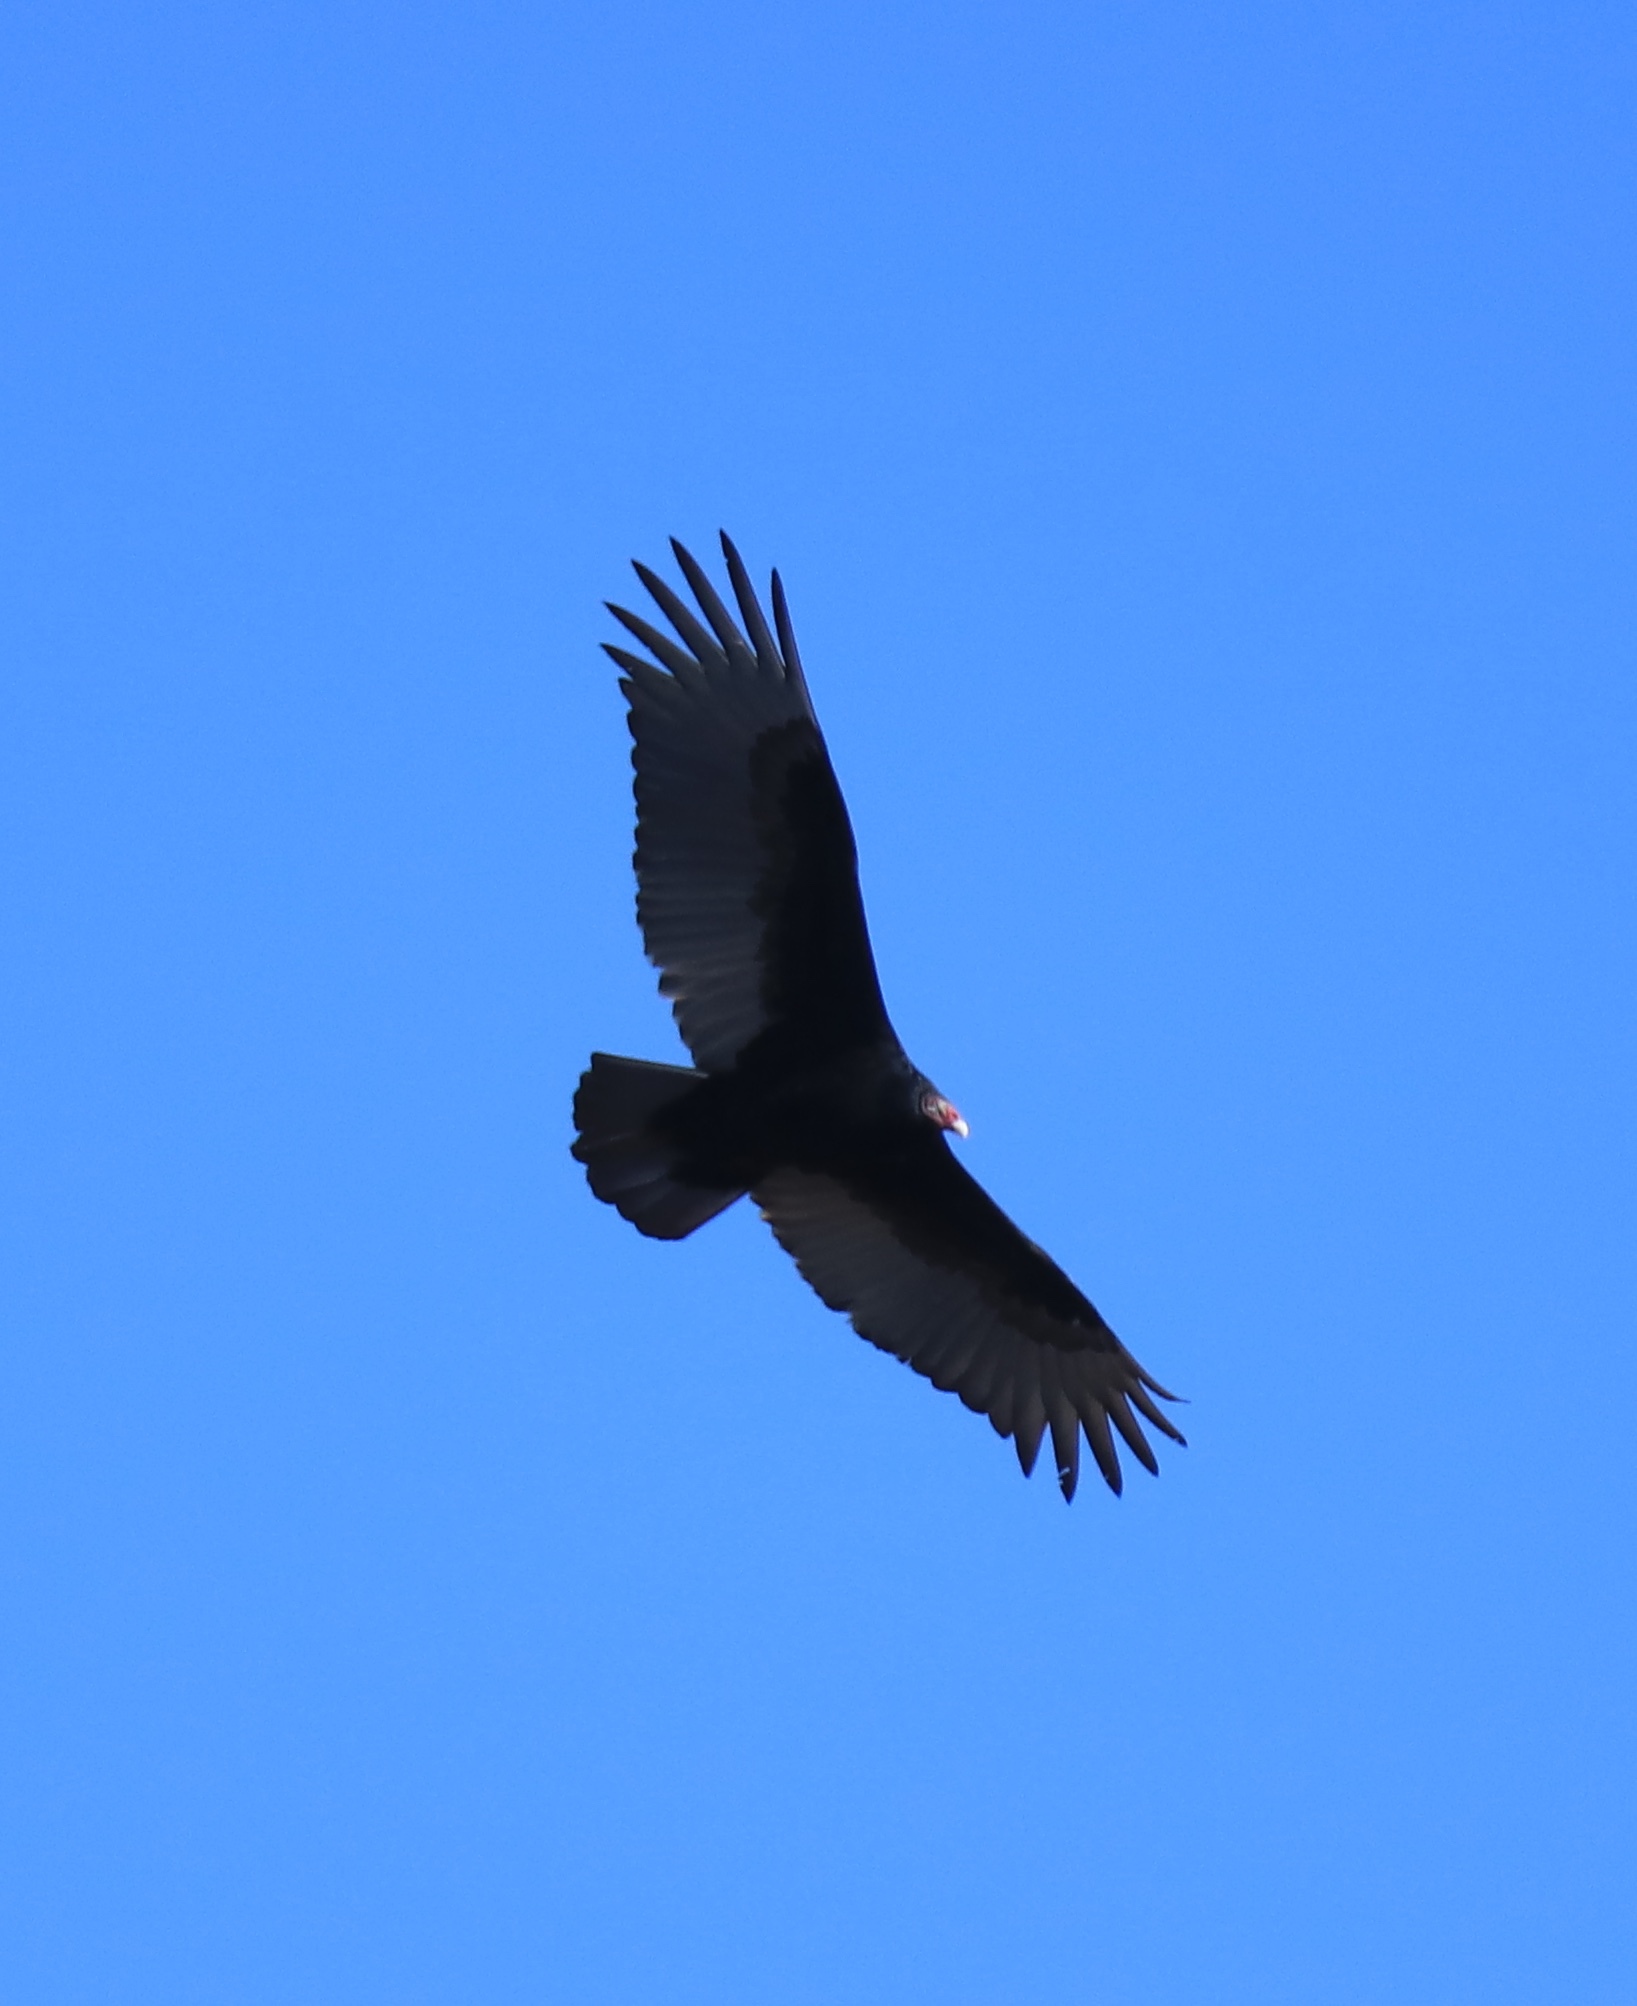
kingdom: Animalia
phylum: Chordata
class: Aves
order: Accipitriformes
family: Cathartidae
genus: Cathartes
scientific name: Cathartes aura
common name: Turkey vulture
